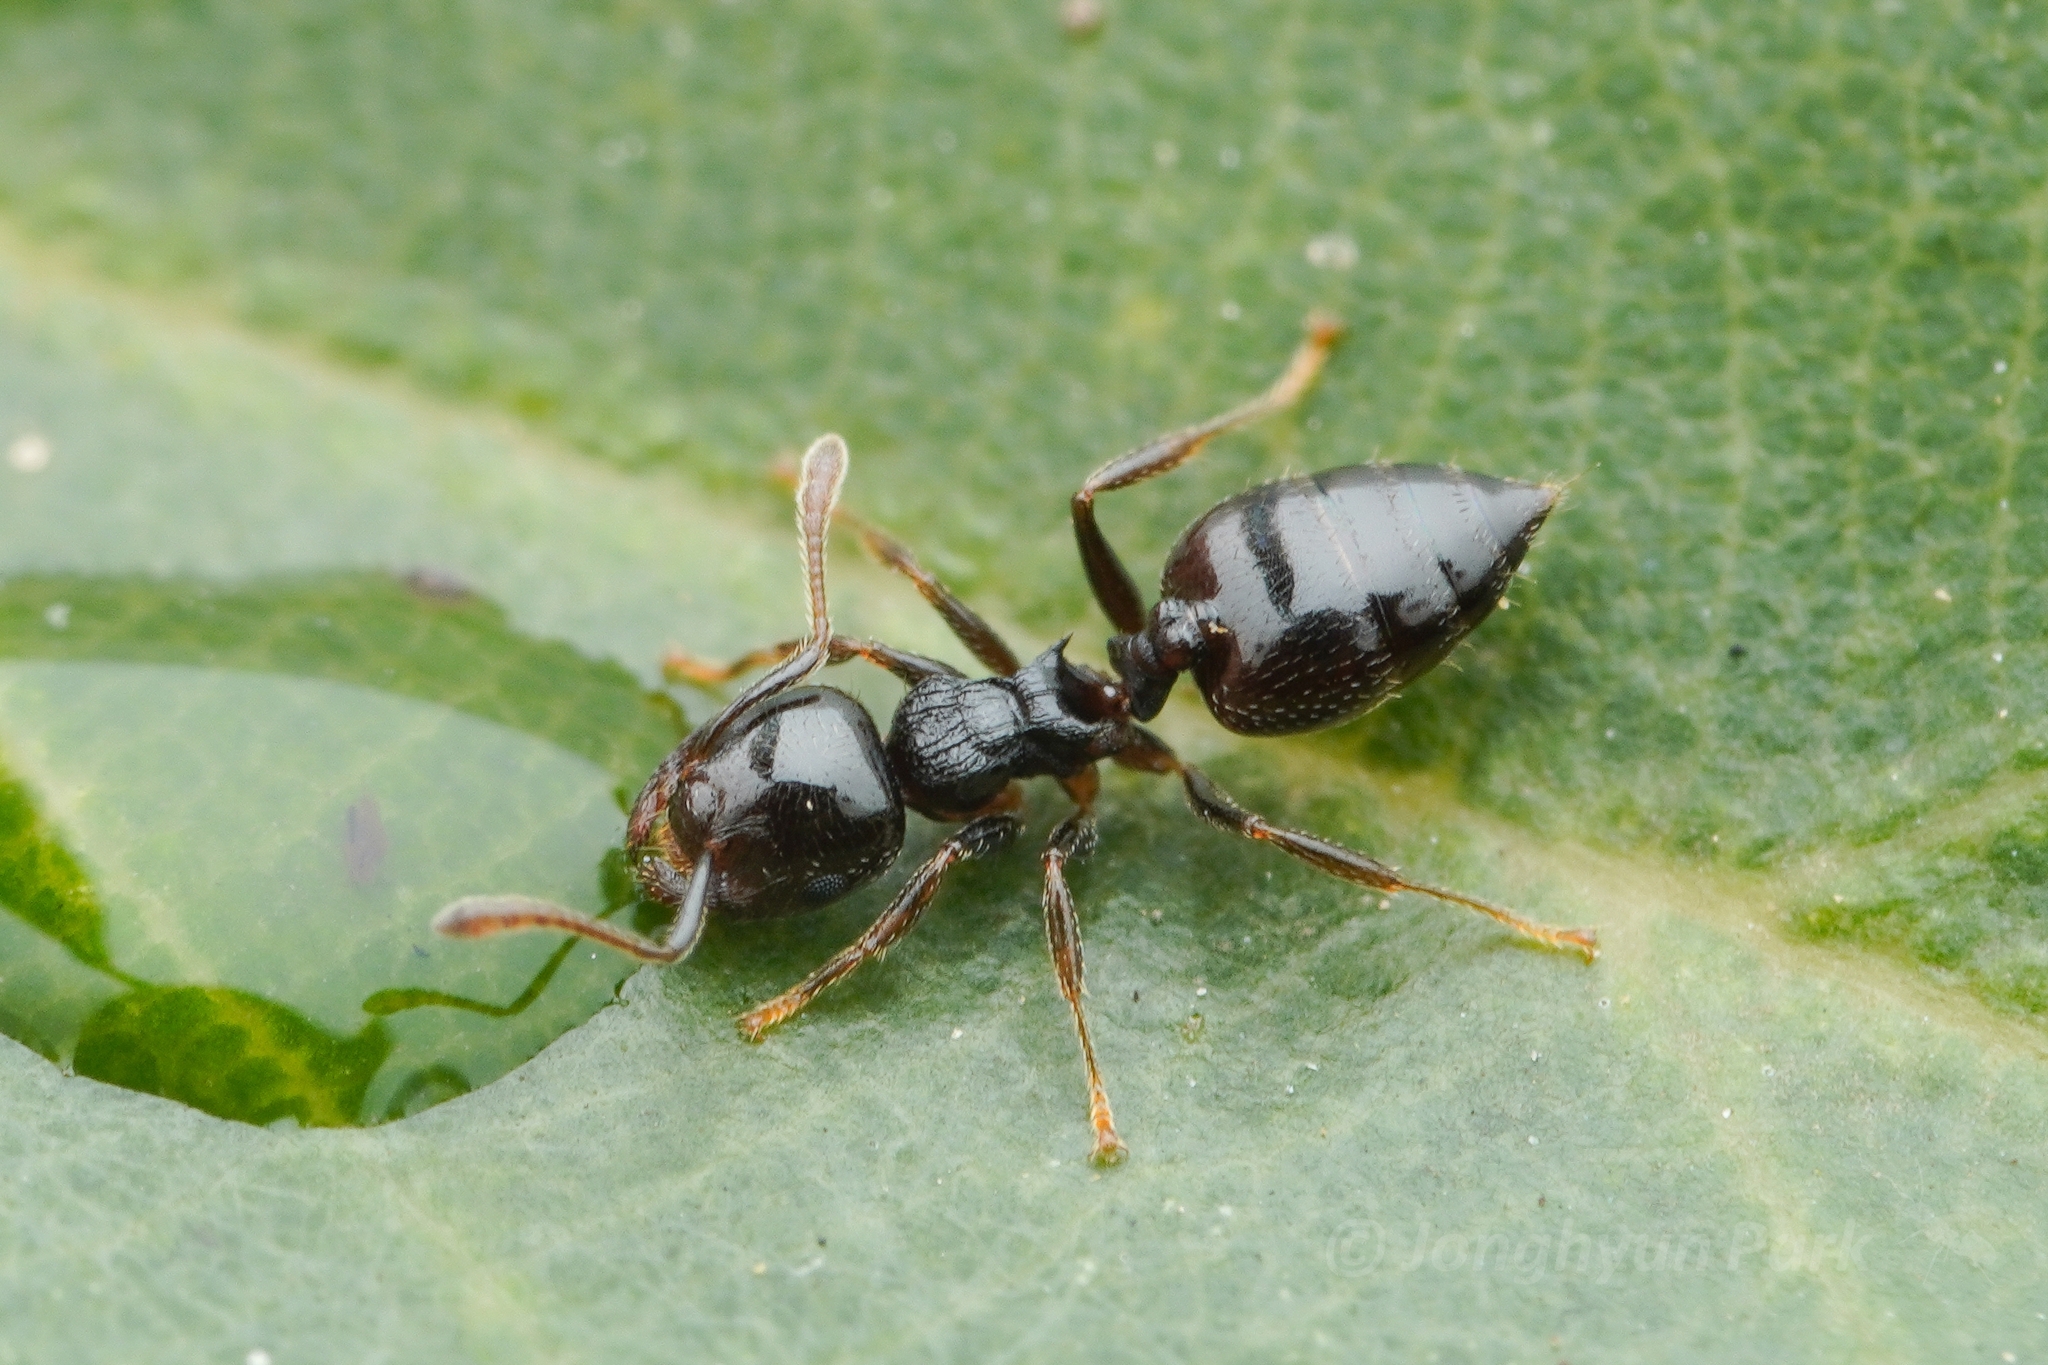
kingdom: Animalia
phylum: Arthropoda
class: Insecta
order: Hymenoptera
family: Formicidae
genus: Crematogaster
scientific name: Crematogaster
